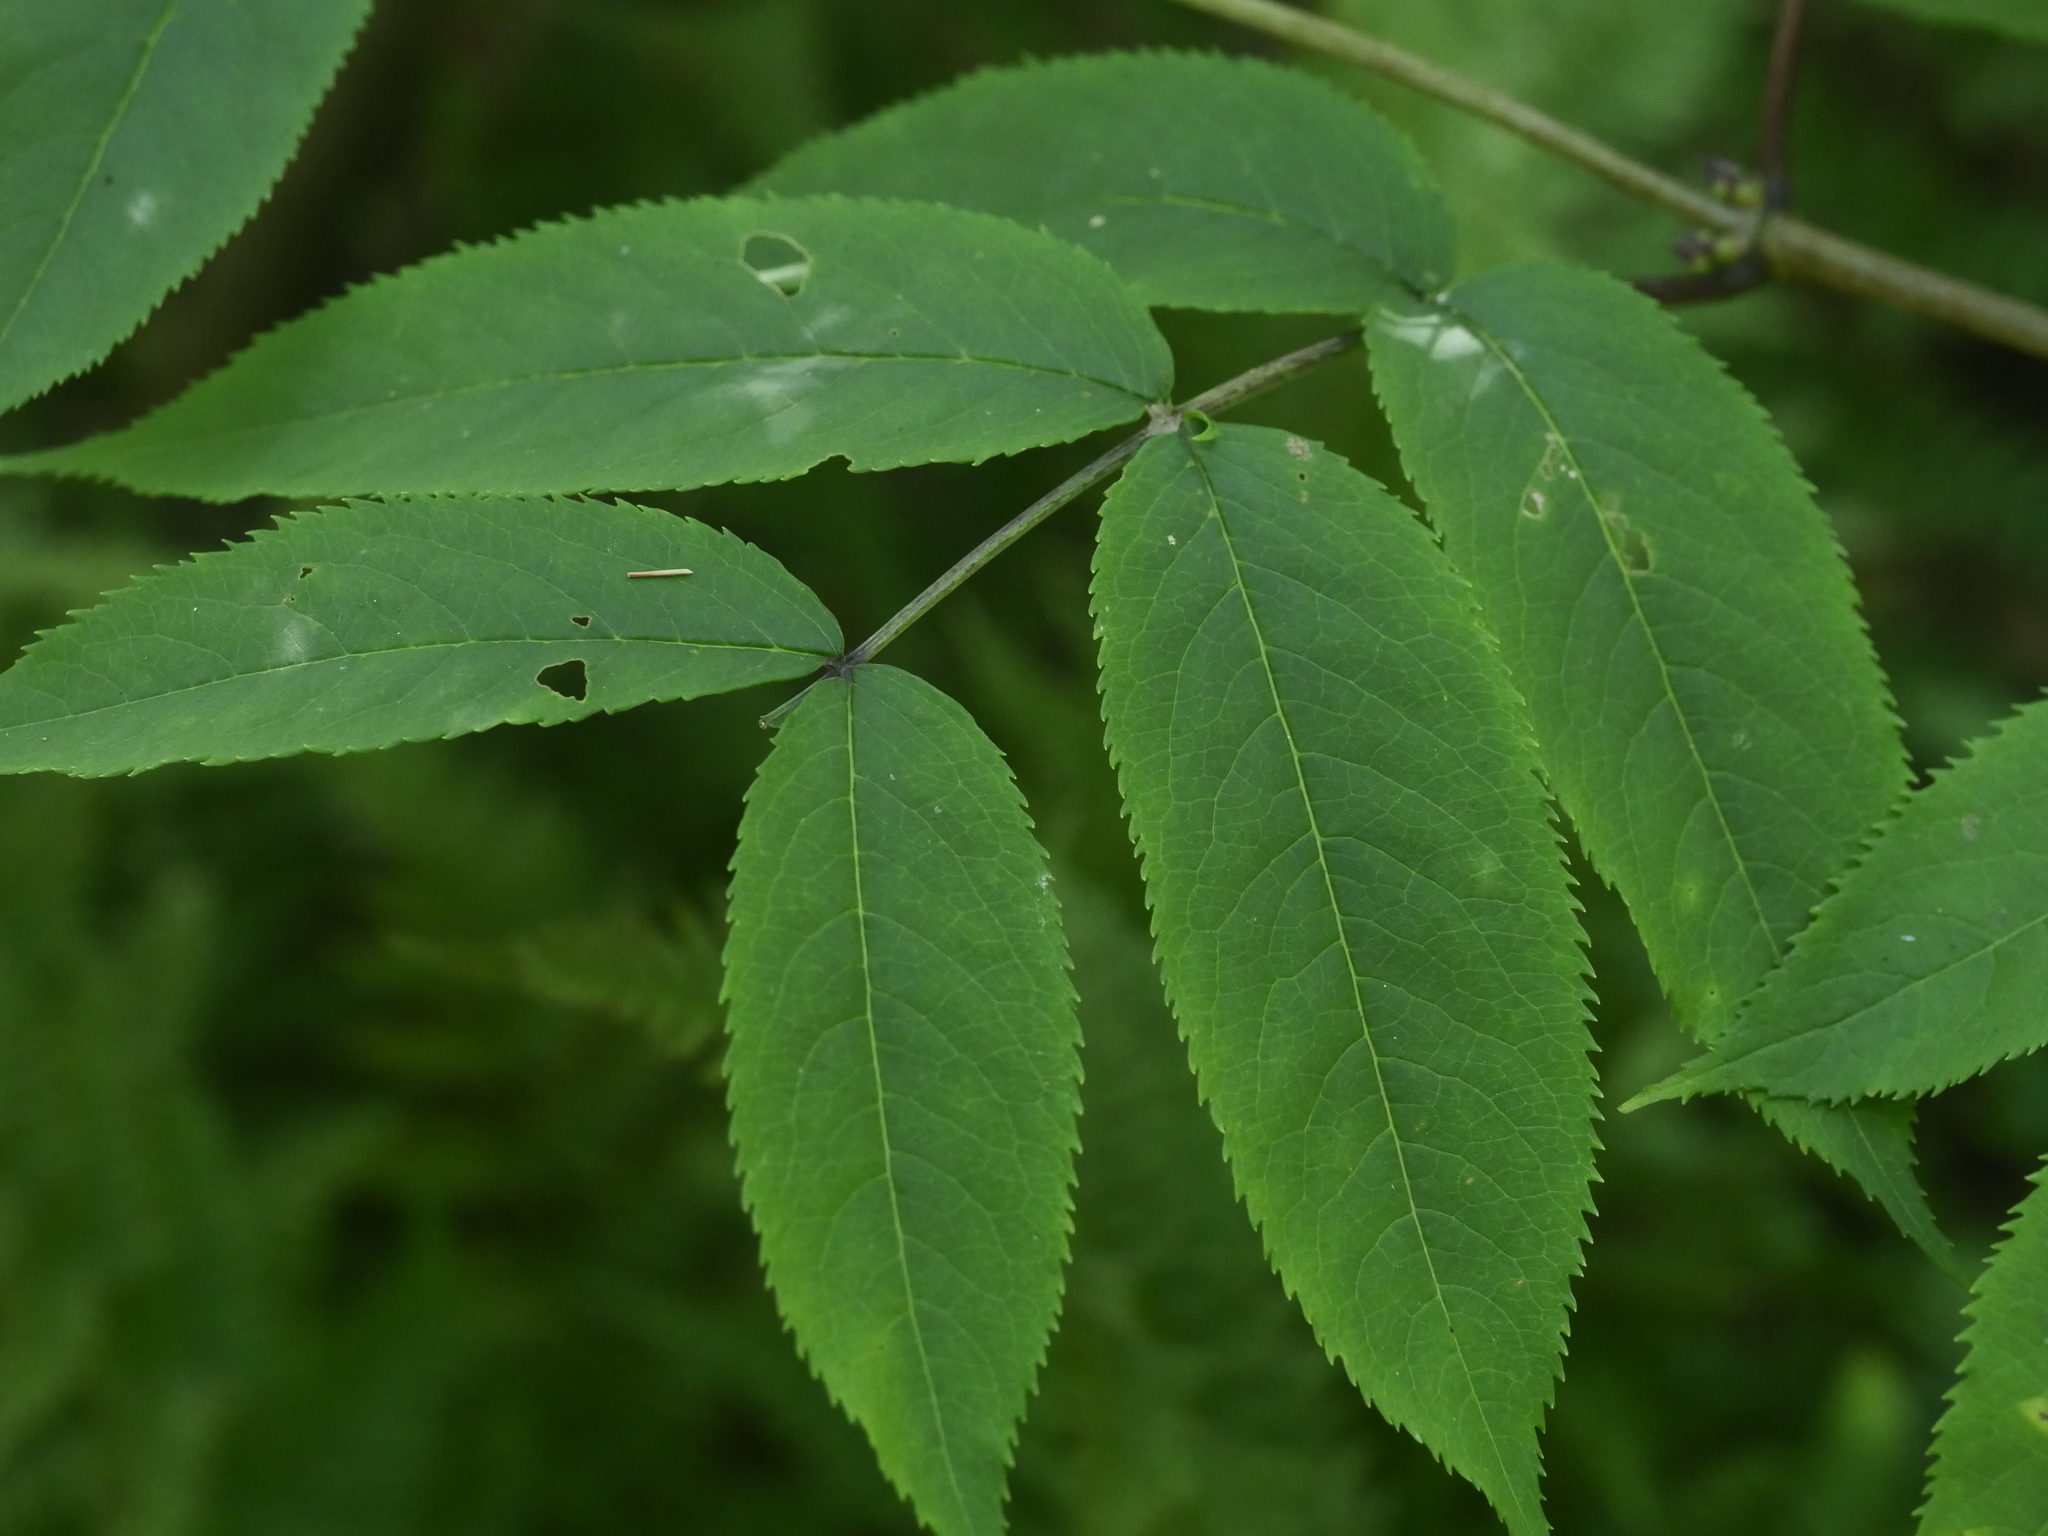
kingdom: Plantae
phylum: Tracheophyta
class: Magnoliopsida
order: Dipsacales
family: Viburnaceae
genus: Sambucus
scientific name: Sambucus racemosa
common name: Red-berried elder
